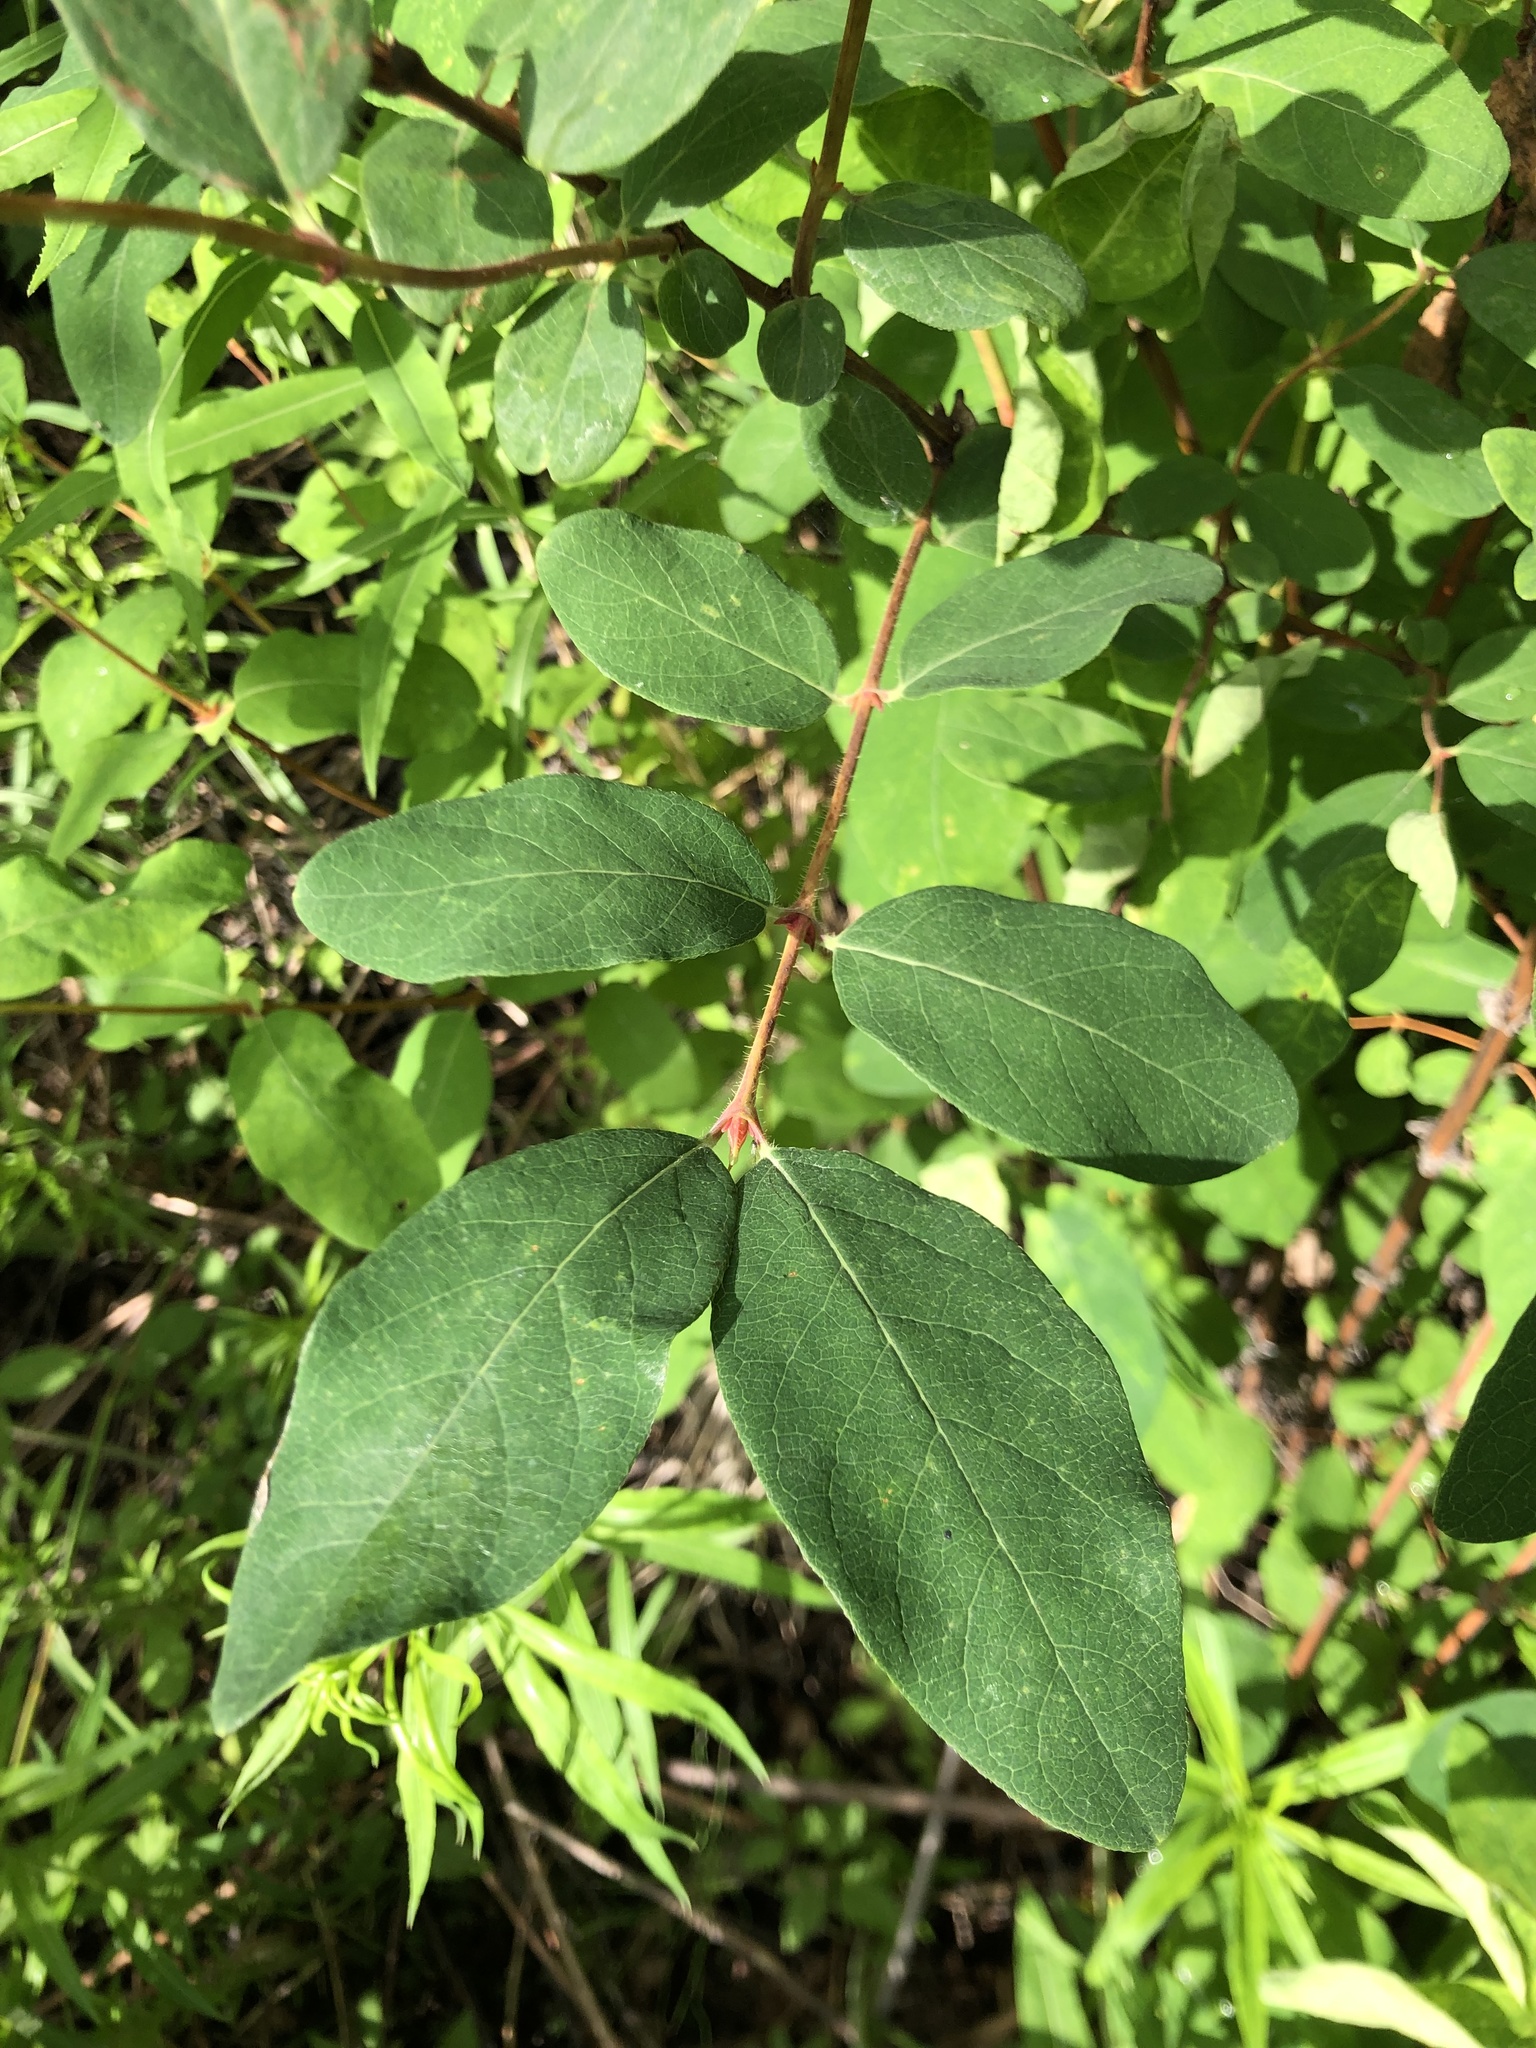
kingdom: Plantae
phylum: Tracheophyta
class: Magnoliopsida
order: Dipsacales
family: Caprifoliaceae
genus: Lonicera
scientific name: Lonicera caerulea
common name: Blue honeysuckle
